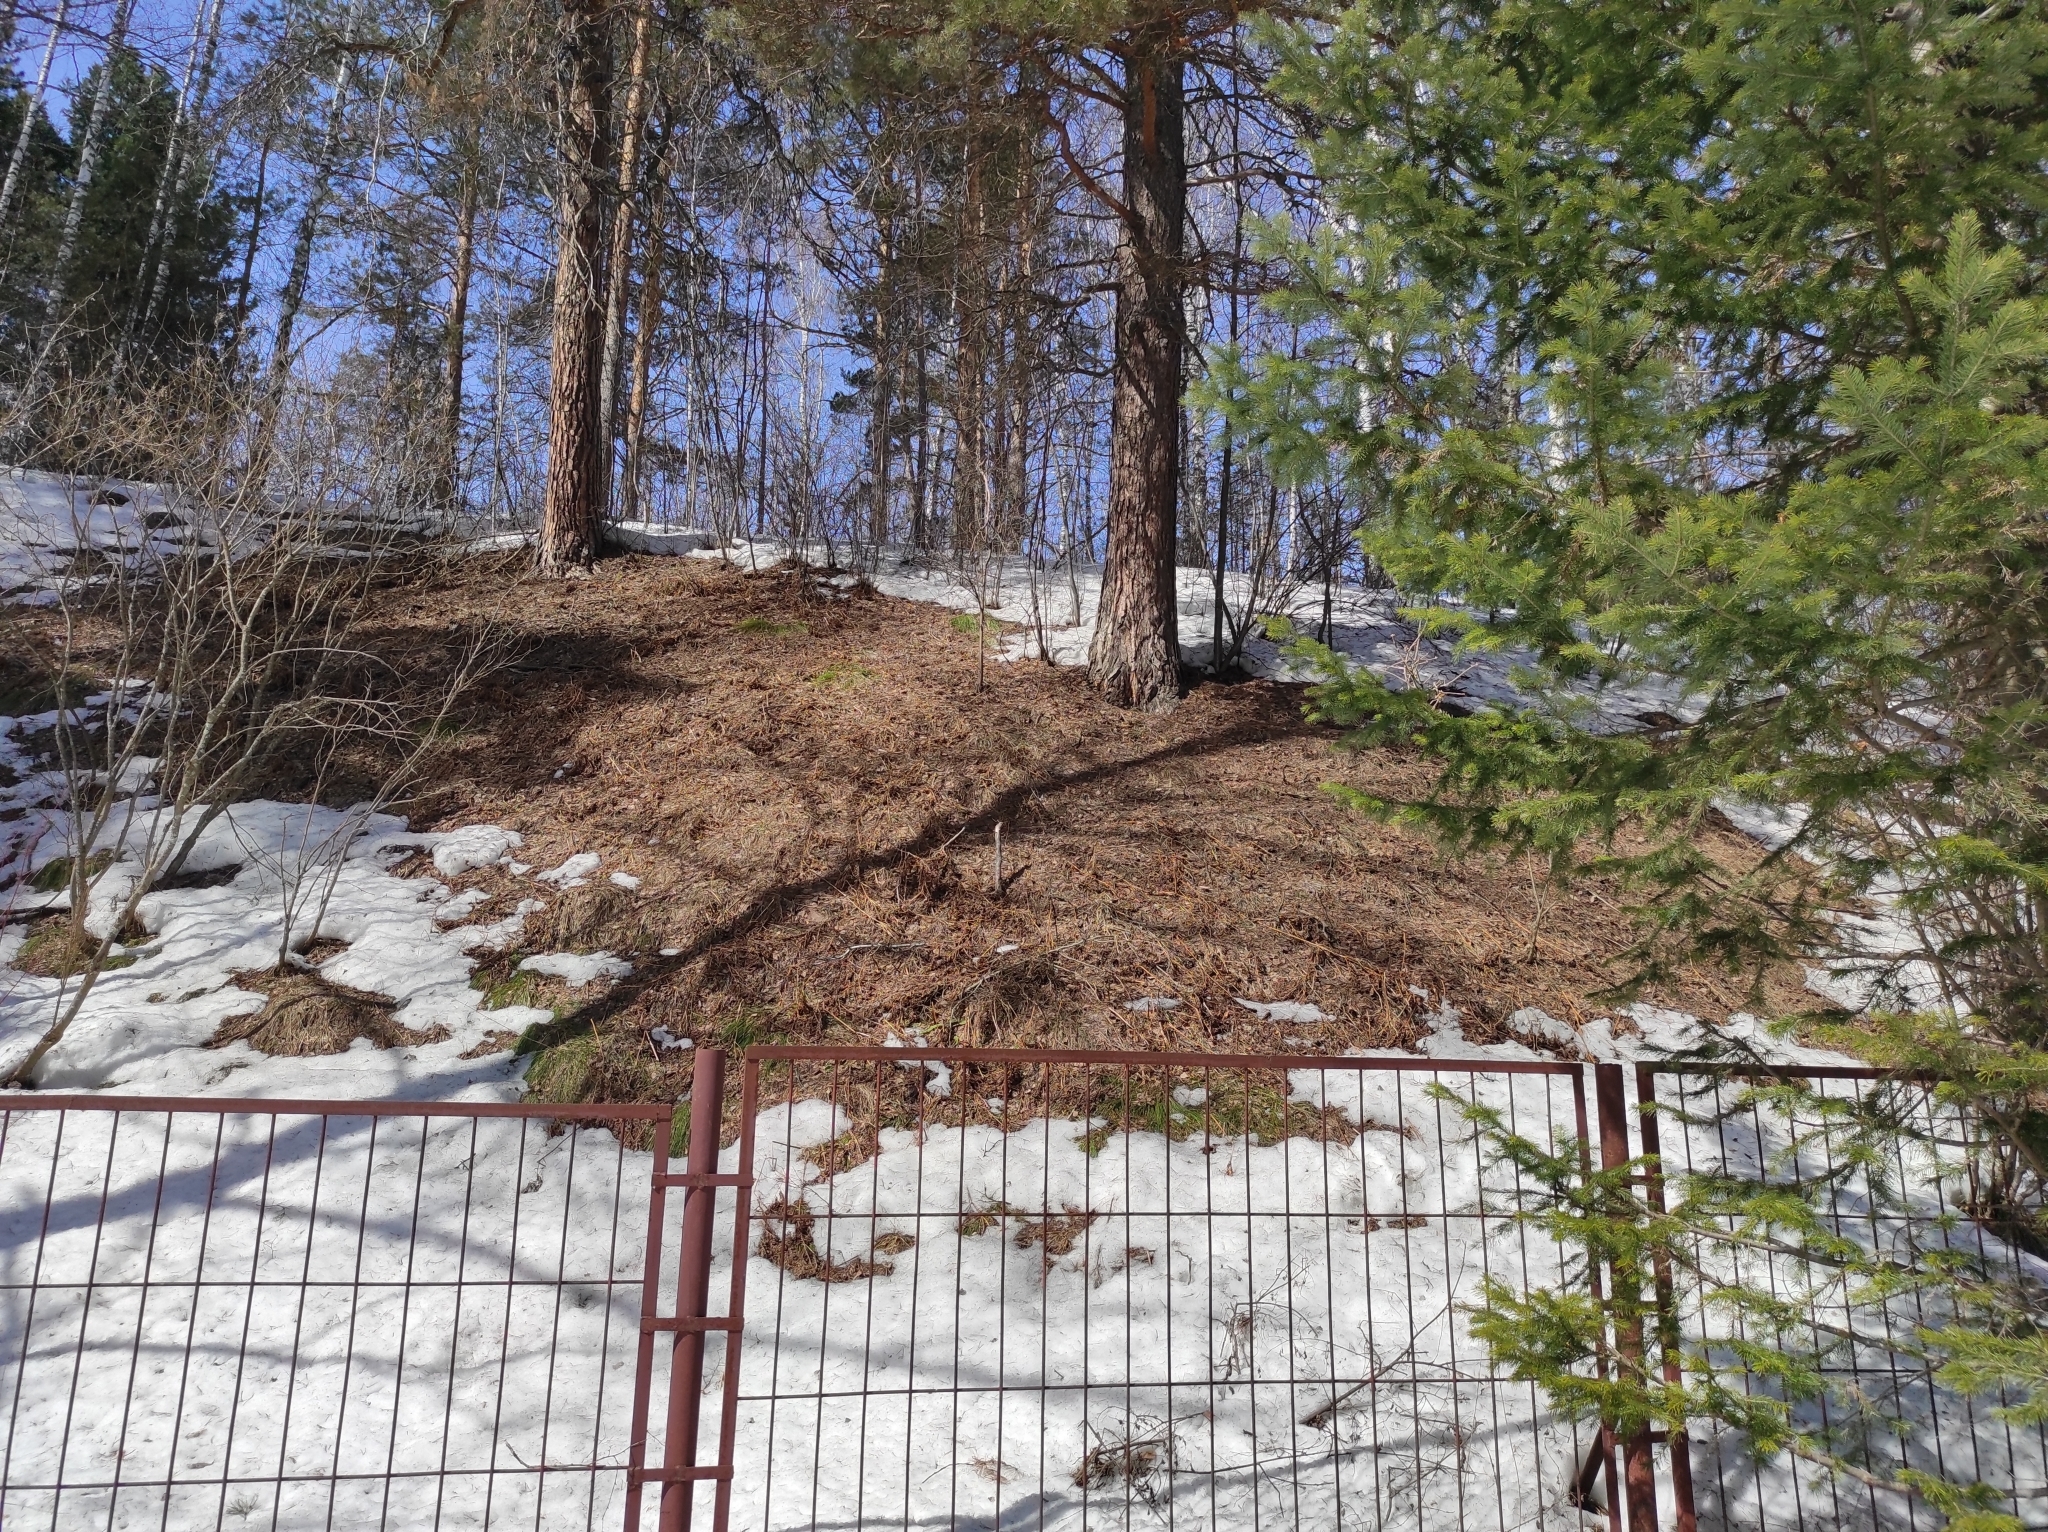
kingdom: Plantae
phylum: Tracheophyta
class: Pinopsida
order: Pinales
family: Pinaceae
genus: Pinus
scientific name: Pinus sylvestris
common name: Scots pine
